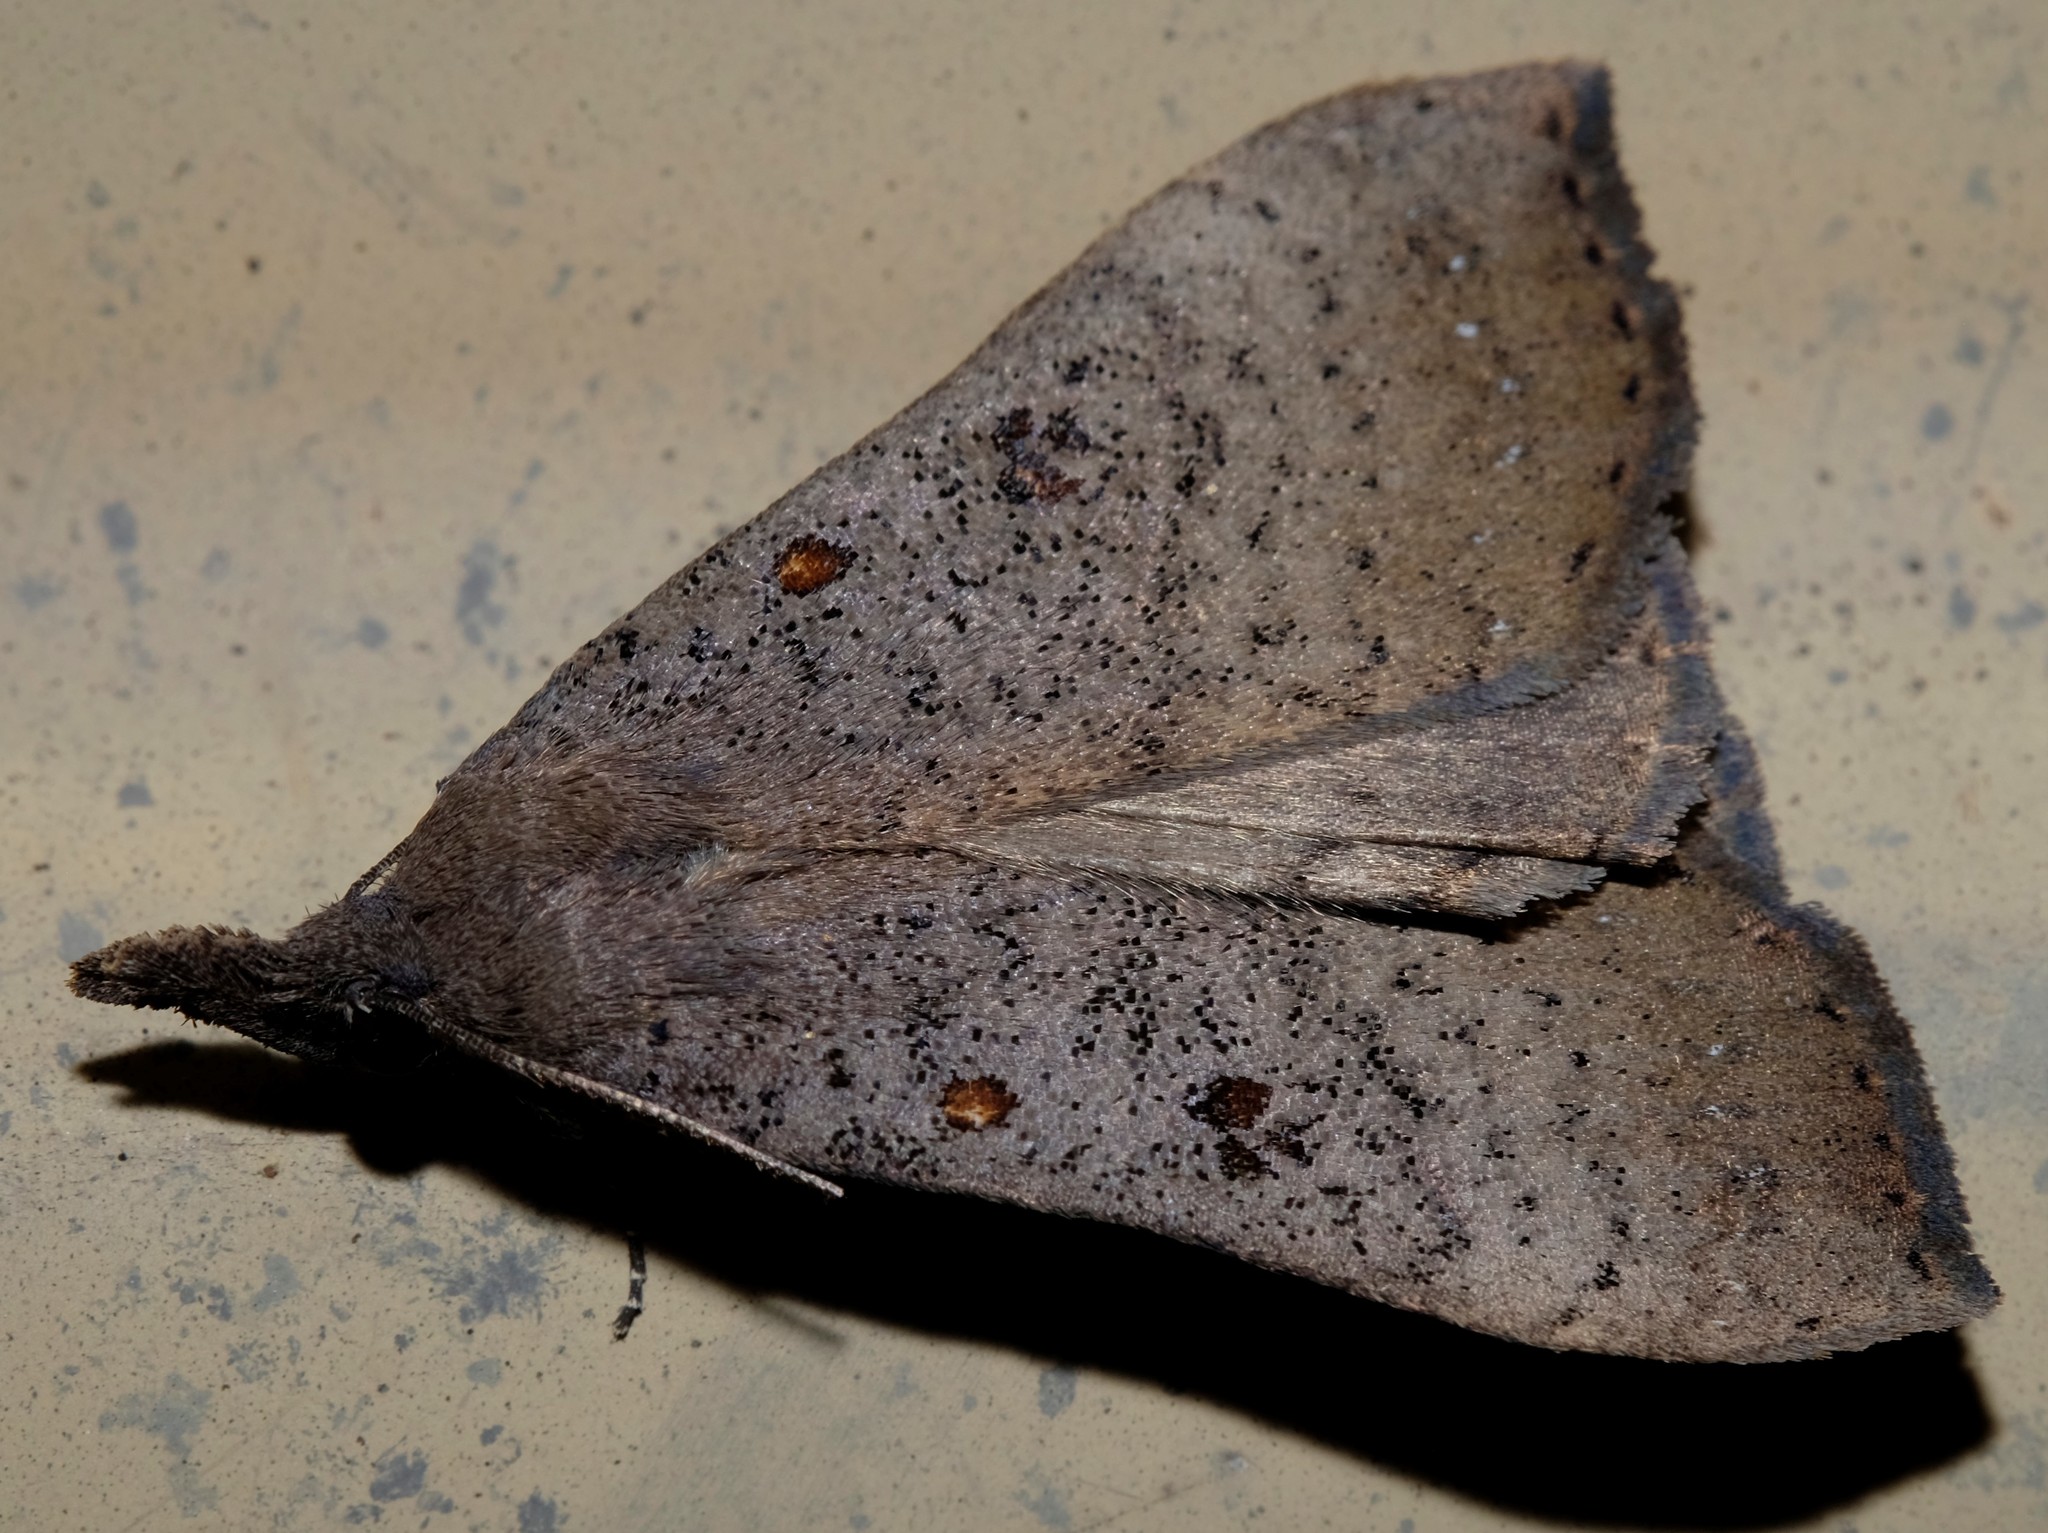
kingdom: Animalia
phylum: Arthropoda
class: Insecta
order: Lepidoptera
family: Erebidae
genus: Rhapsa
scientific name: Rhapsa suscitatalis
